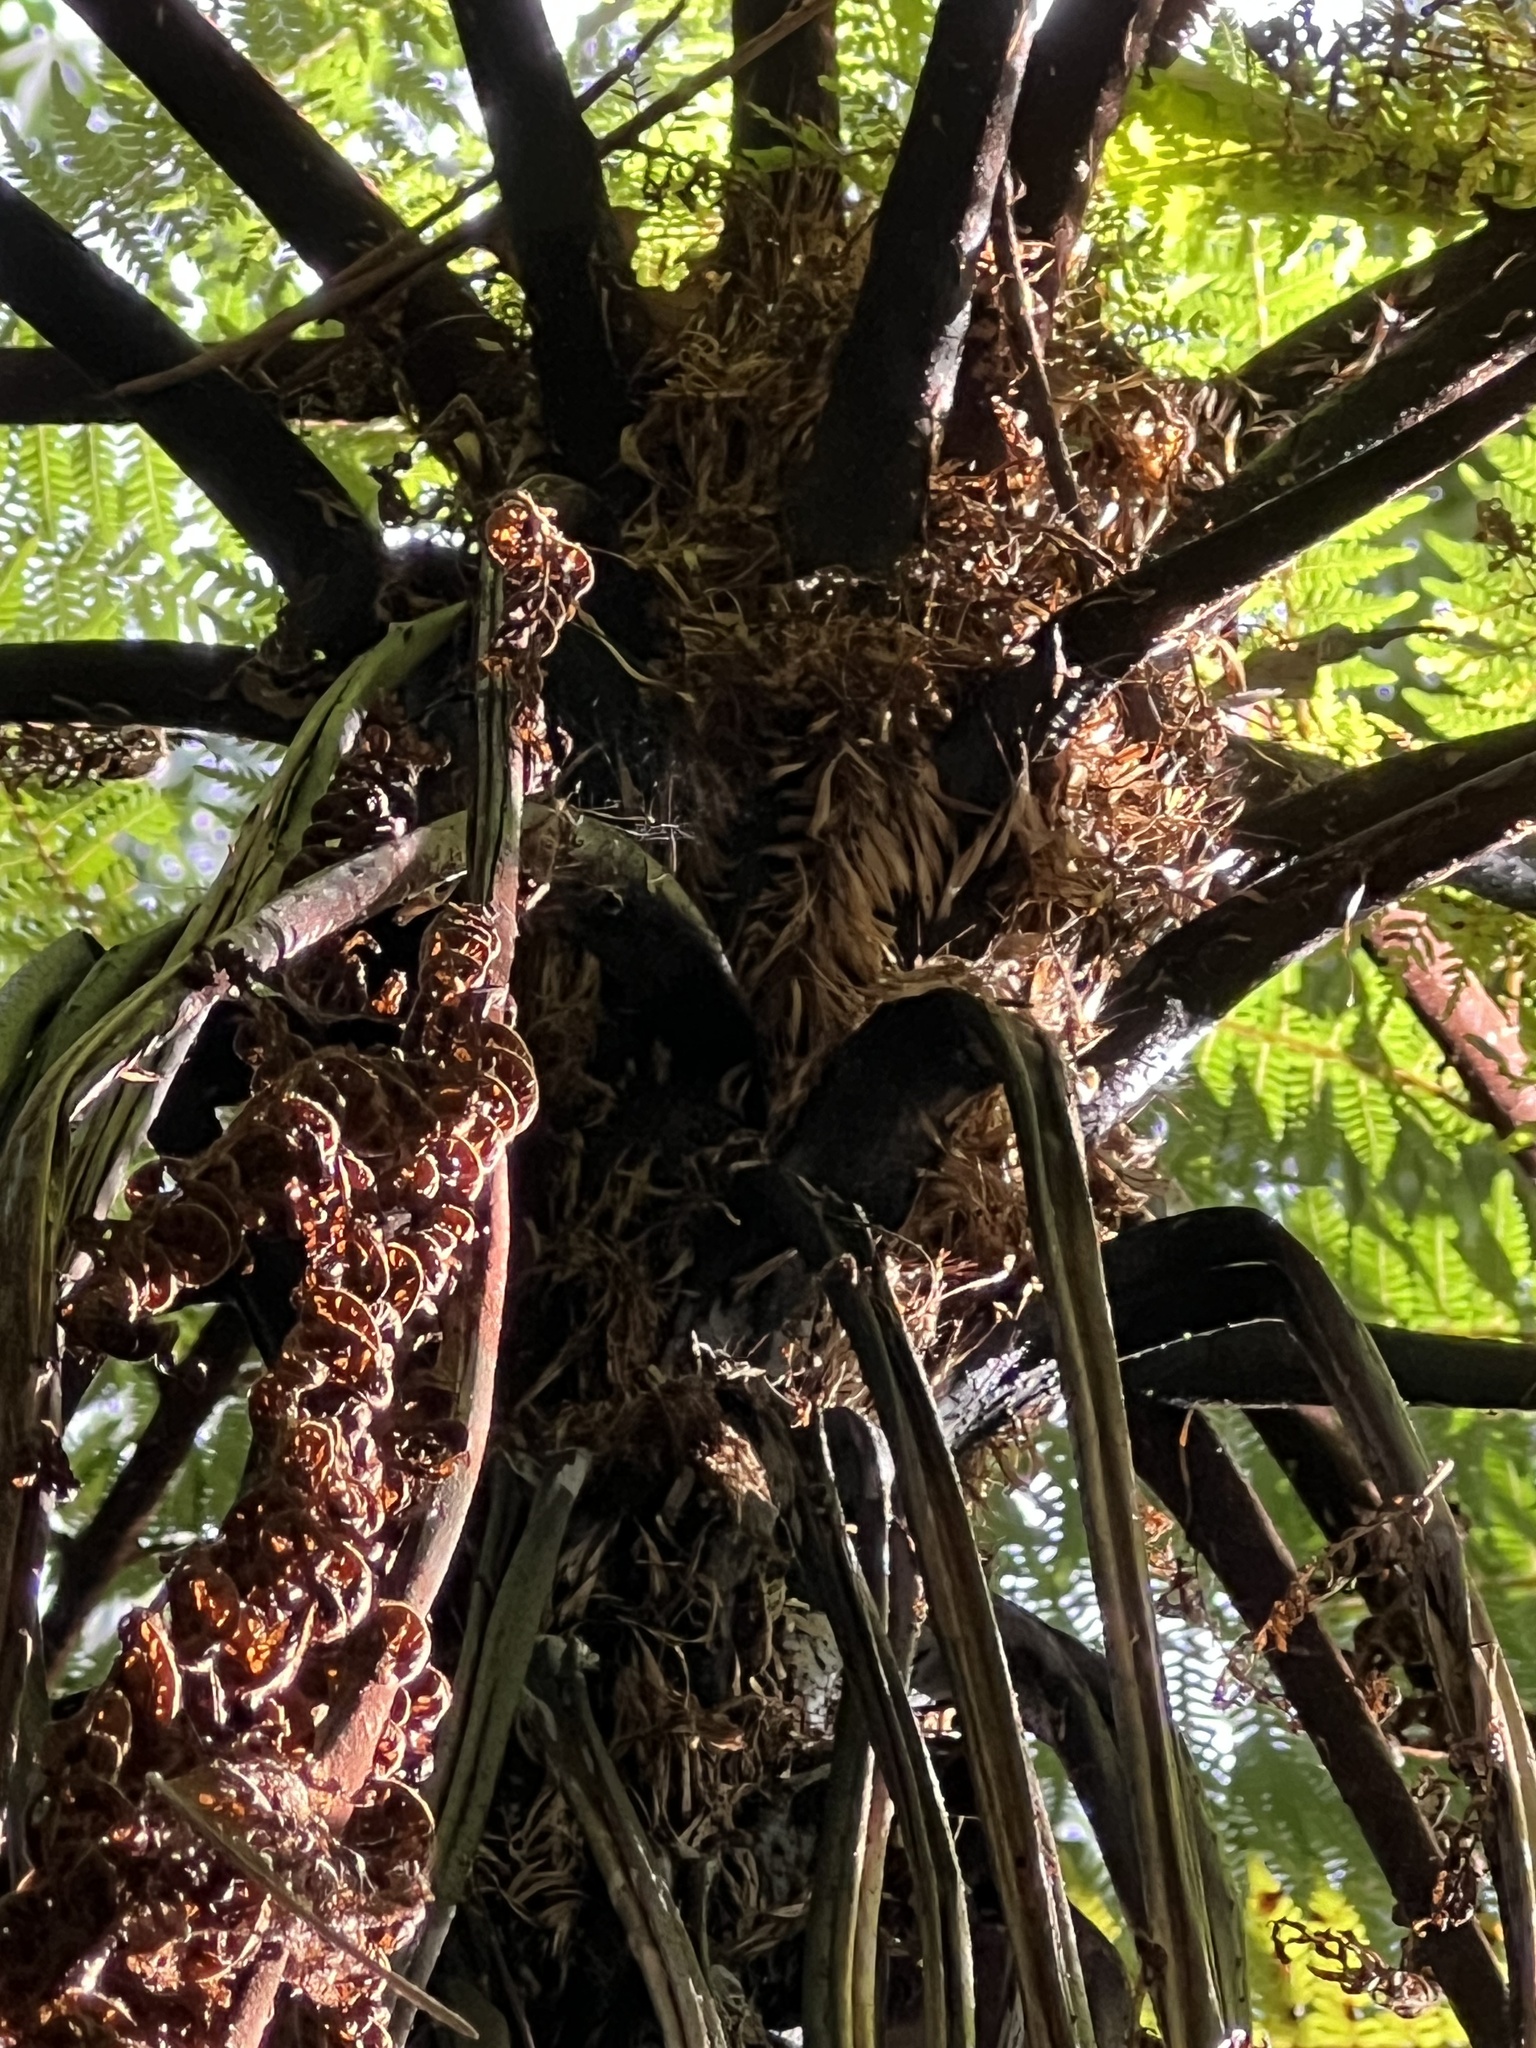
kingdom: Plantae
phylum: Tracheophyta
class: Polypodiopsida
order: Cyatheales
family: Cyatheaceae
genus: Cyathea
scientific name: Cyathea cunninghamii
